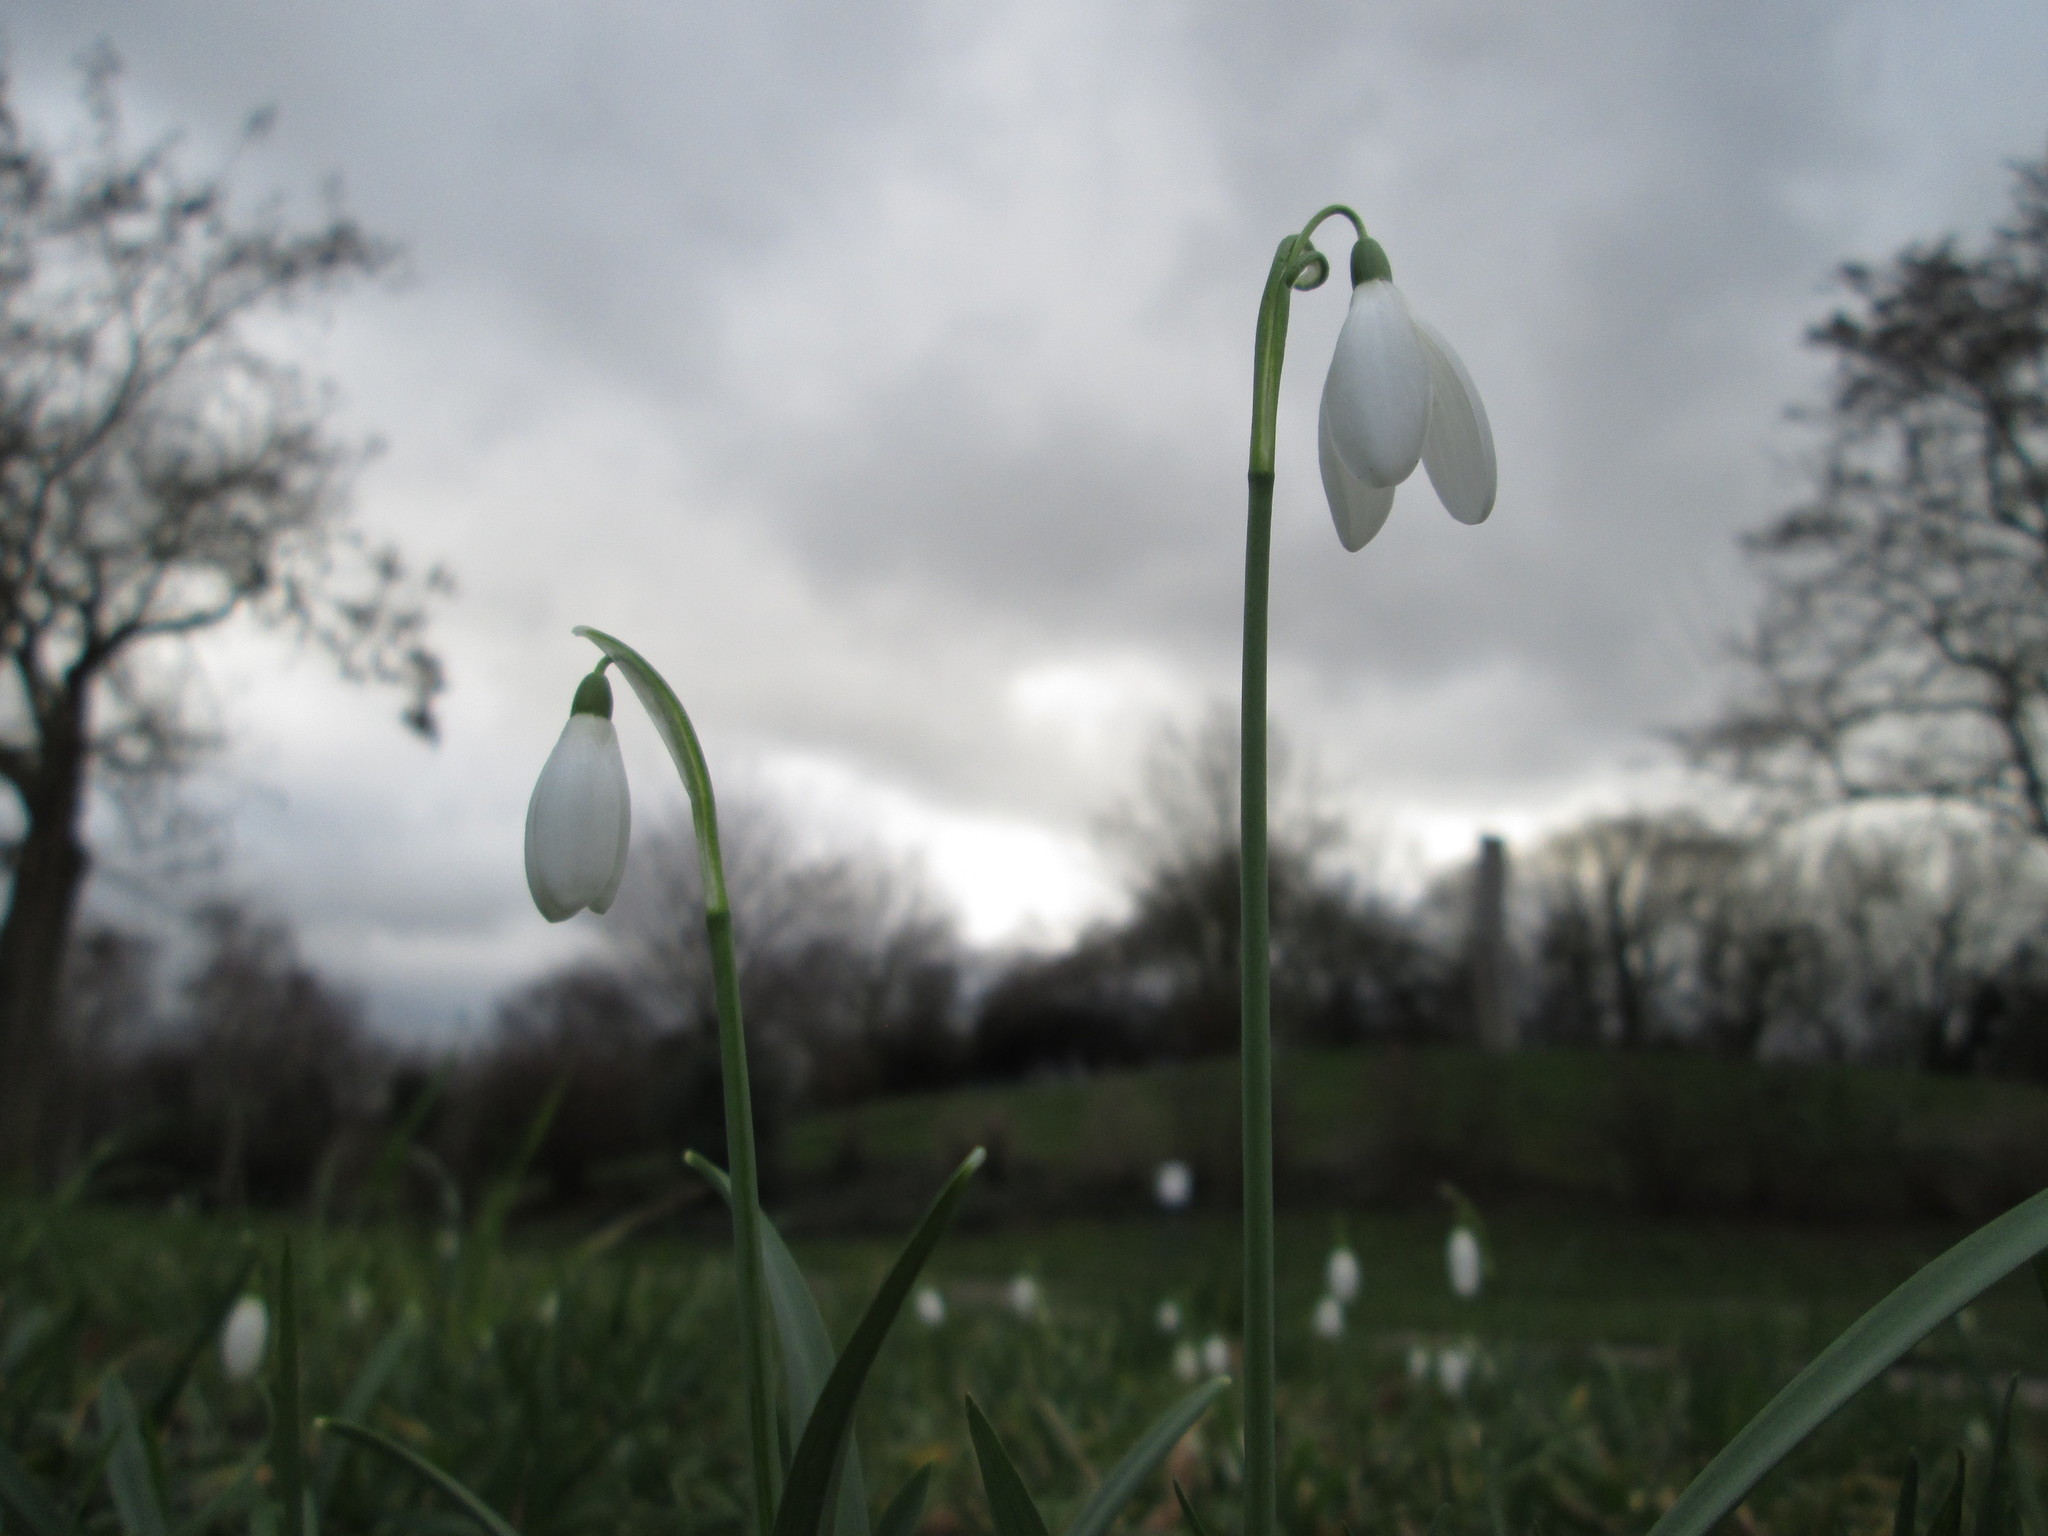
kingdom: Plantae
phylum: Tracheophyta
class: Liliopsida
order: Asparagales
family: Amaryllidaceae
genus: Galanthus
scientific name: Galanthus nivalis
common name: Snowdrop
